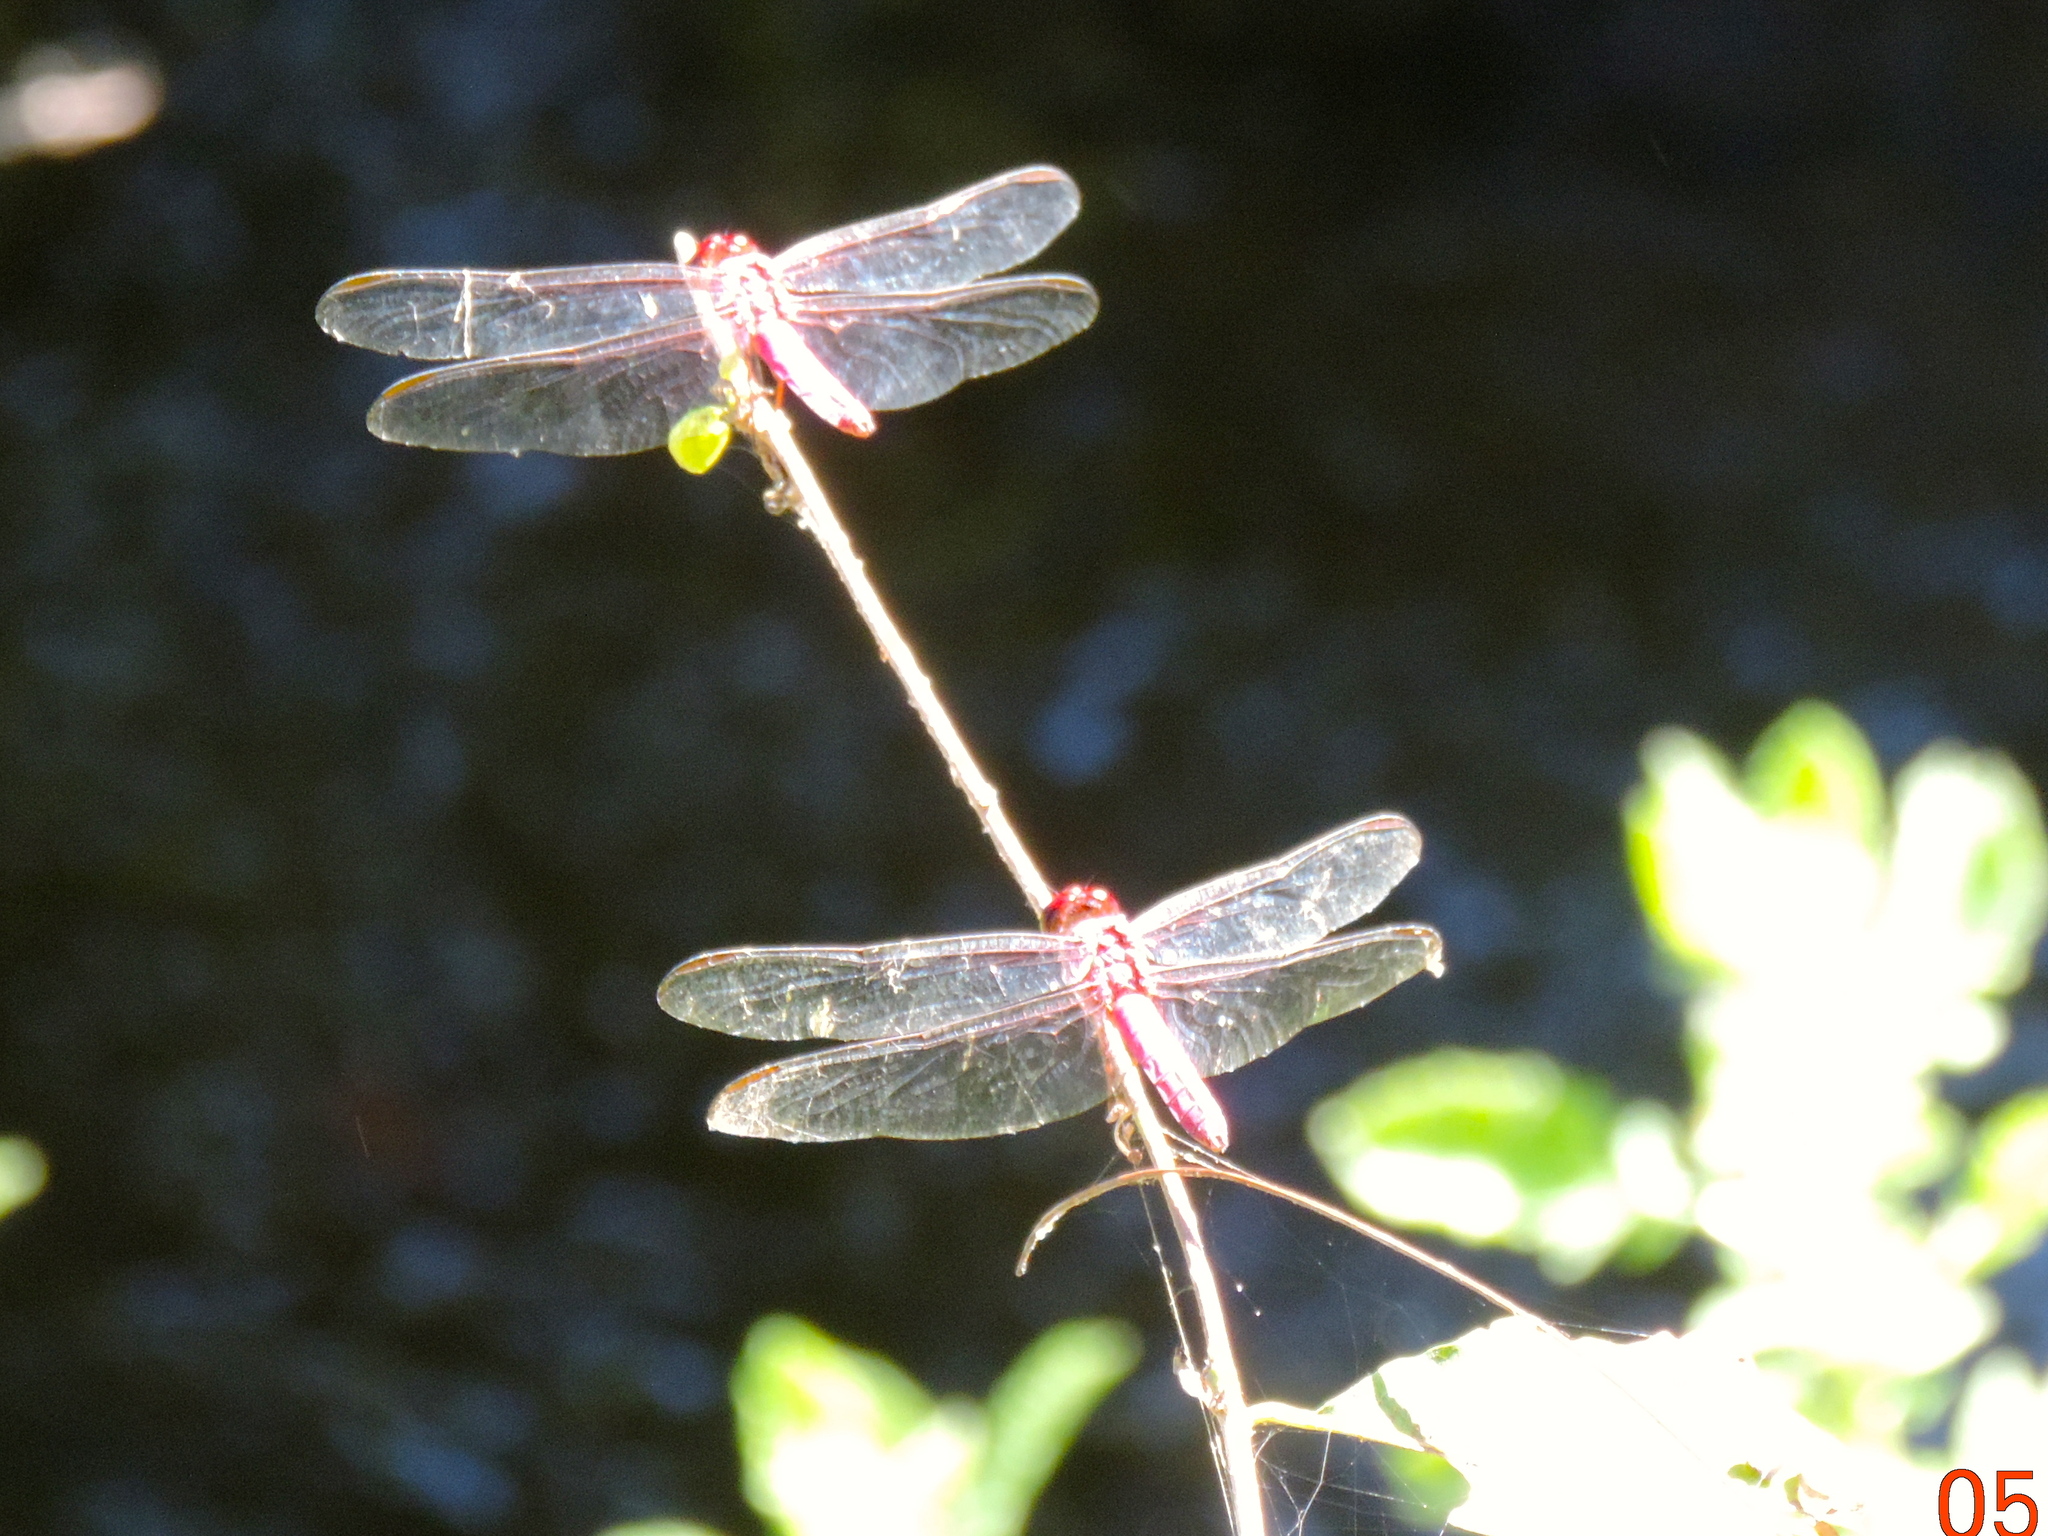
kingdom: Animalia
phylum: Arthropoda
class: Insecta
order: Odonata
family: Libellulidae
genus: Orthemis
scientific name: Orthemis
